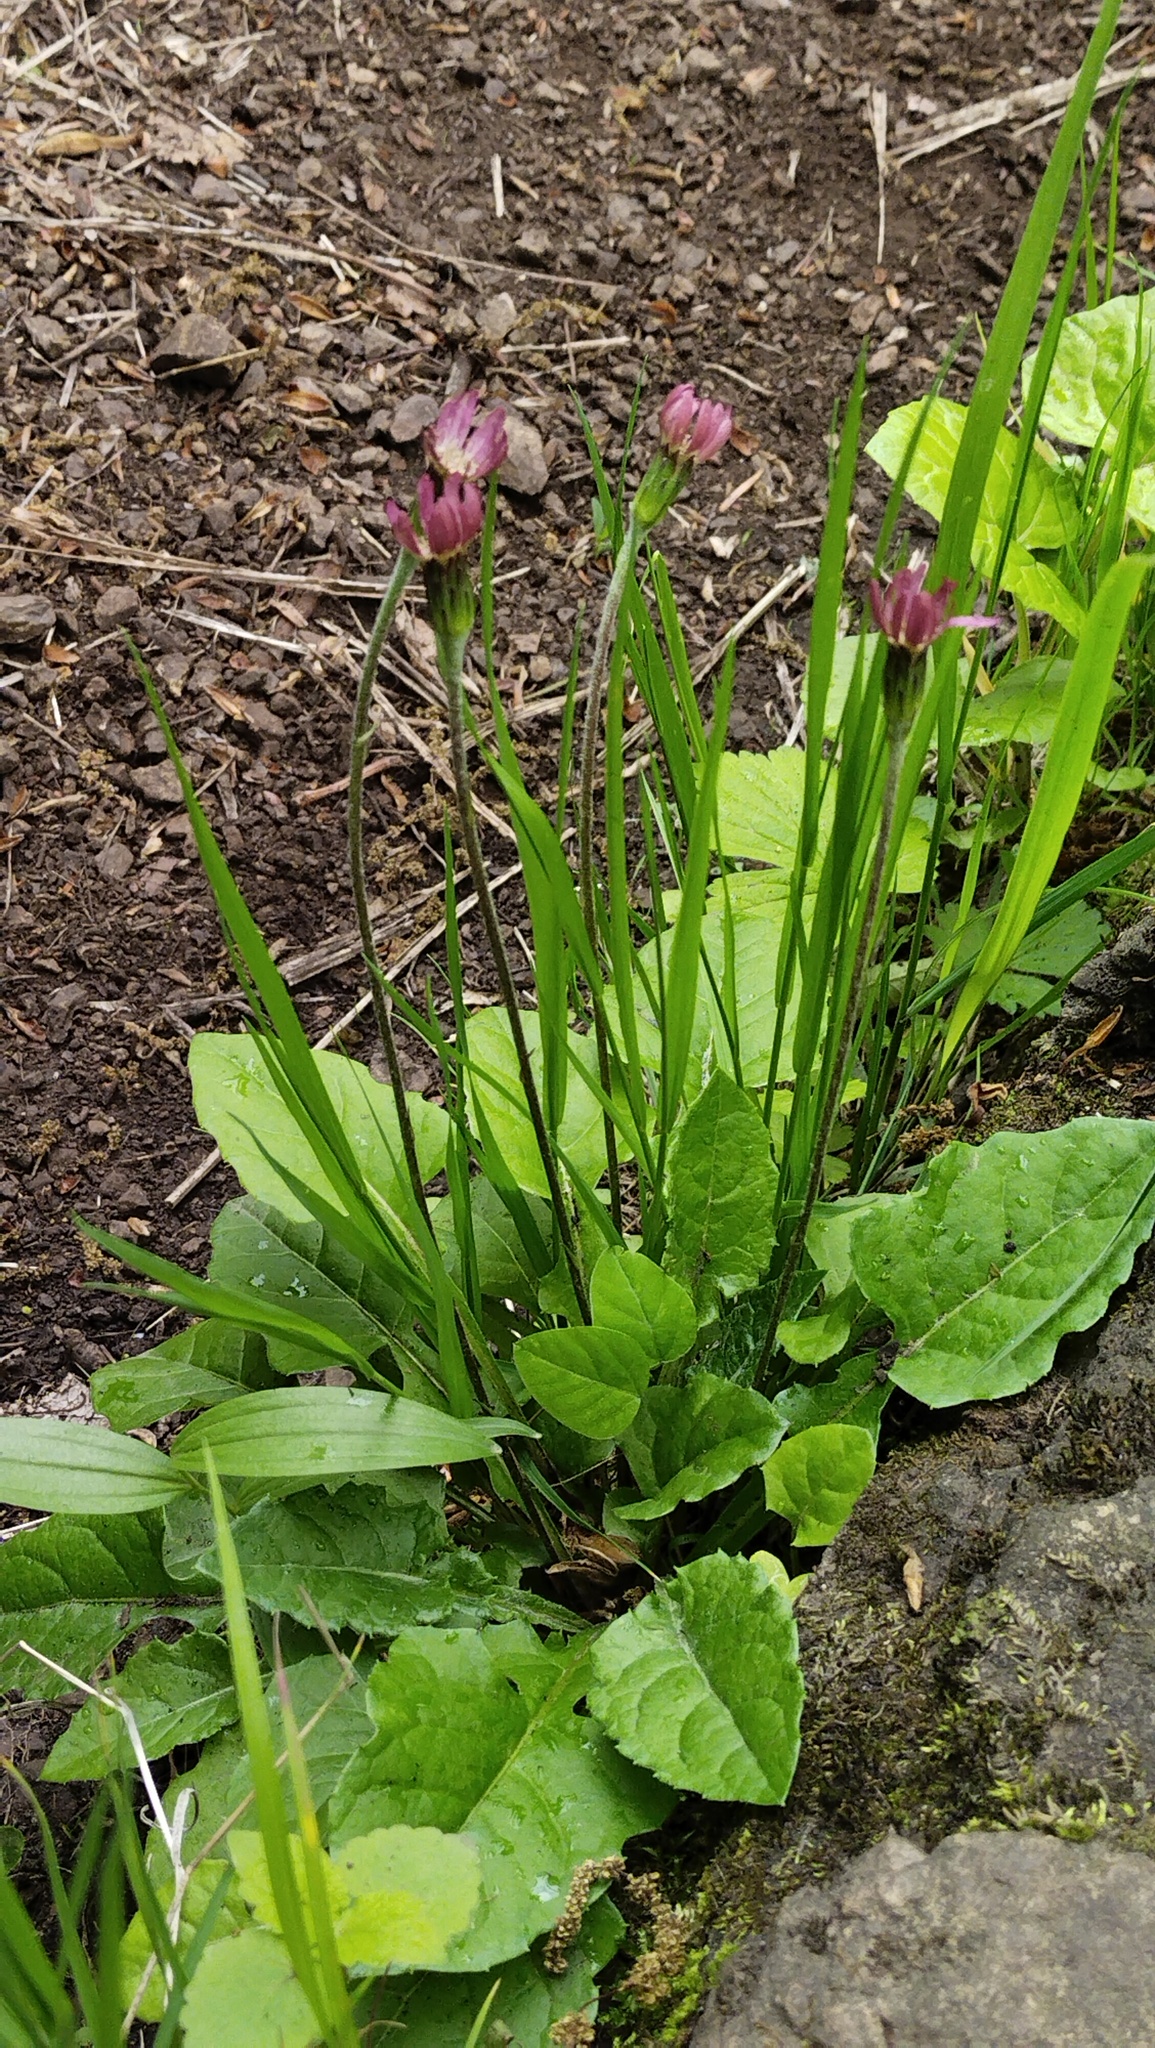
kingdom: Plantae
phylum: Tracheophyta
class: Magnoliopsida
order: Asterales
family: Asteraceae
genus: Leibnitzia
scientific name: Leibnitzia anandria
